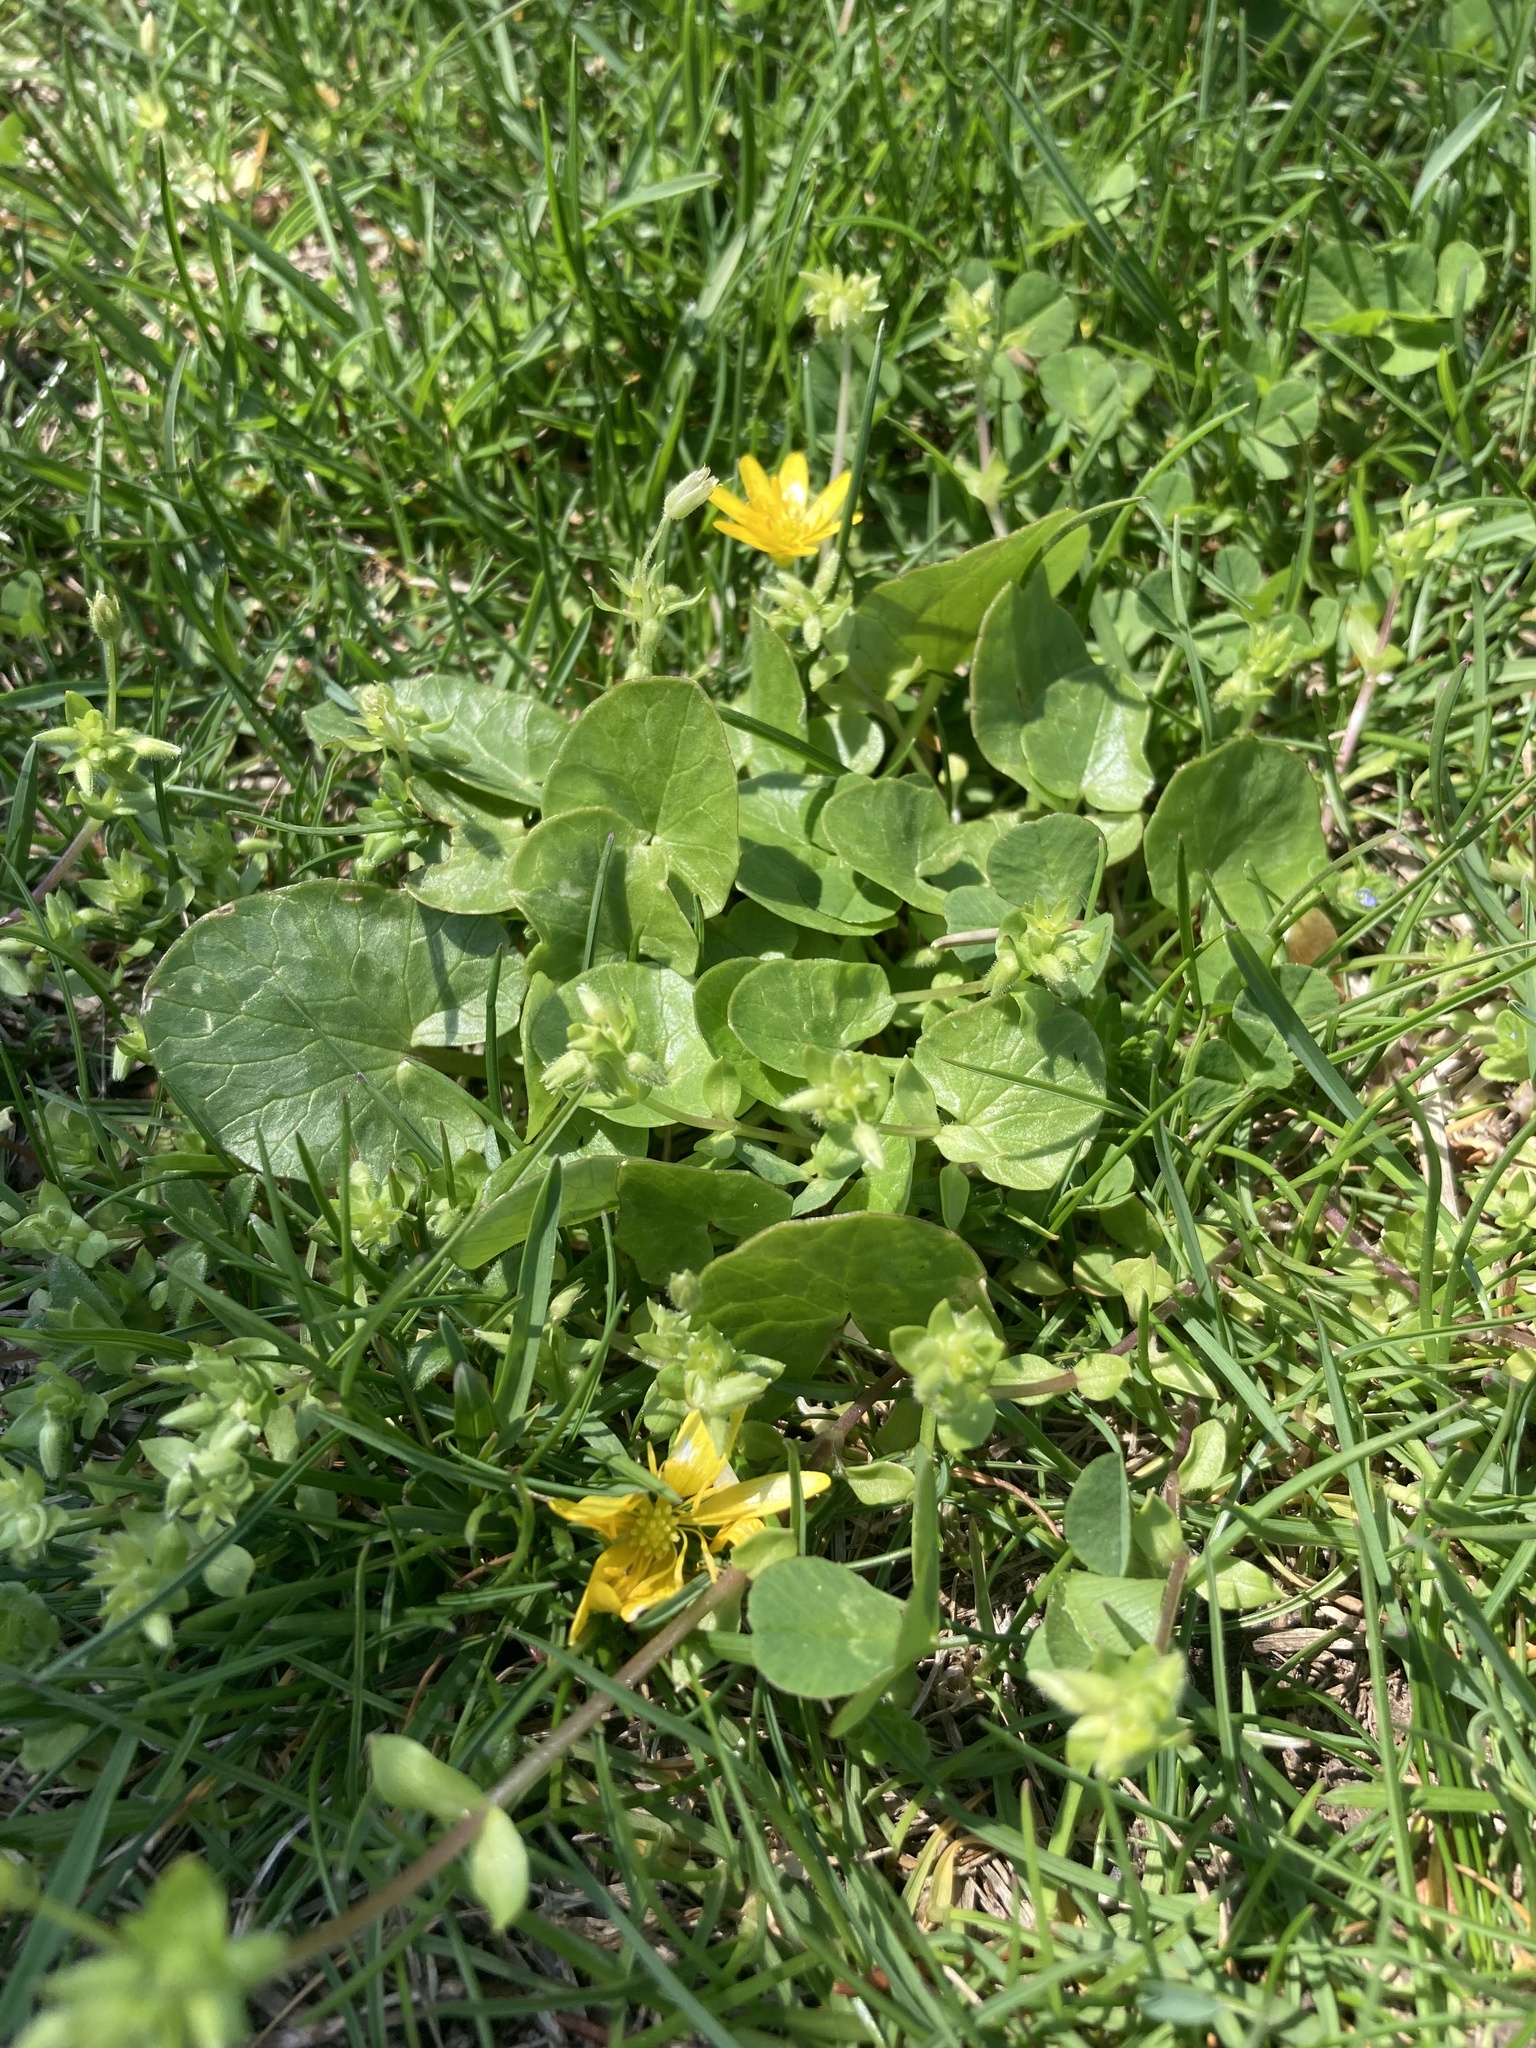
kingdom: Plantae
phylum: Tracheophyta
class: Magnoliopsida
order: Ranunculales
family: Ranunculaceae
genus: Ficaria
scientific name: Ficaria verna
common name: Lesser celandine
